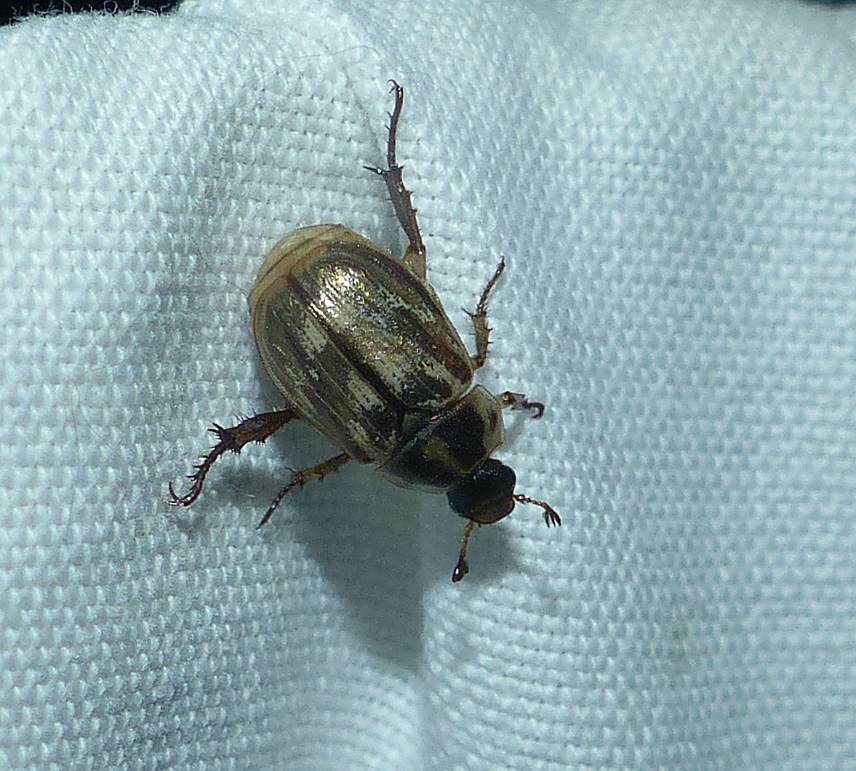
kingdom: Animalia
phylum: Arthropoda
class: Insecta
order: Coleoptera
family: Scarabaeidae
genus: Exomala
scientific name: Exomala orientalis
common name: Oriental beetle
